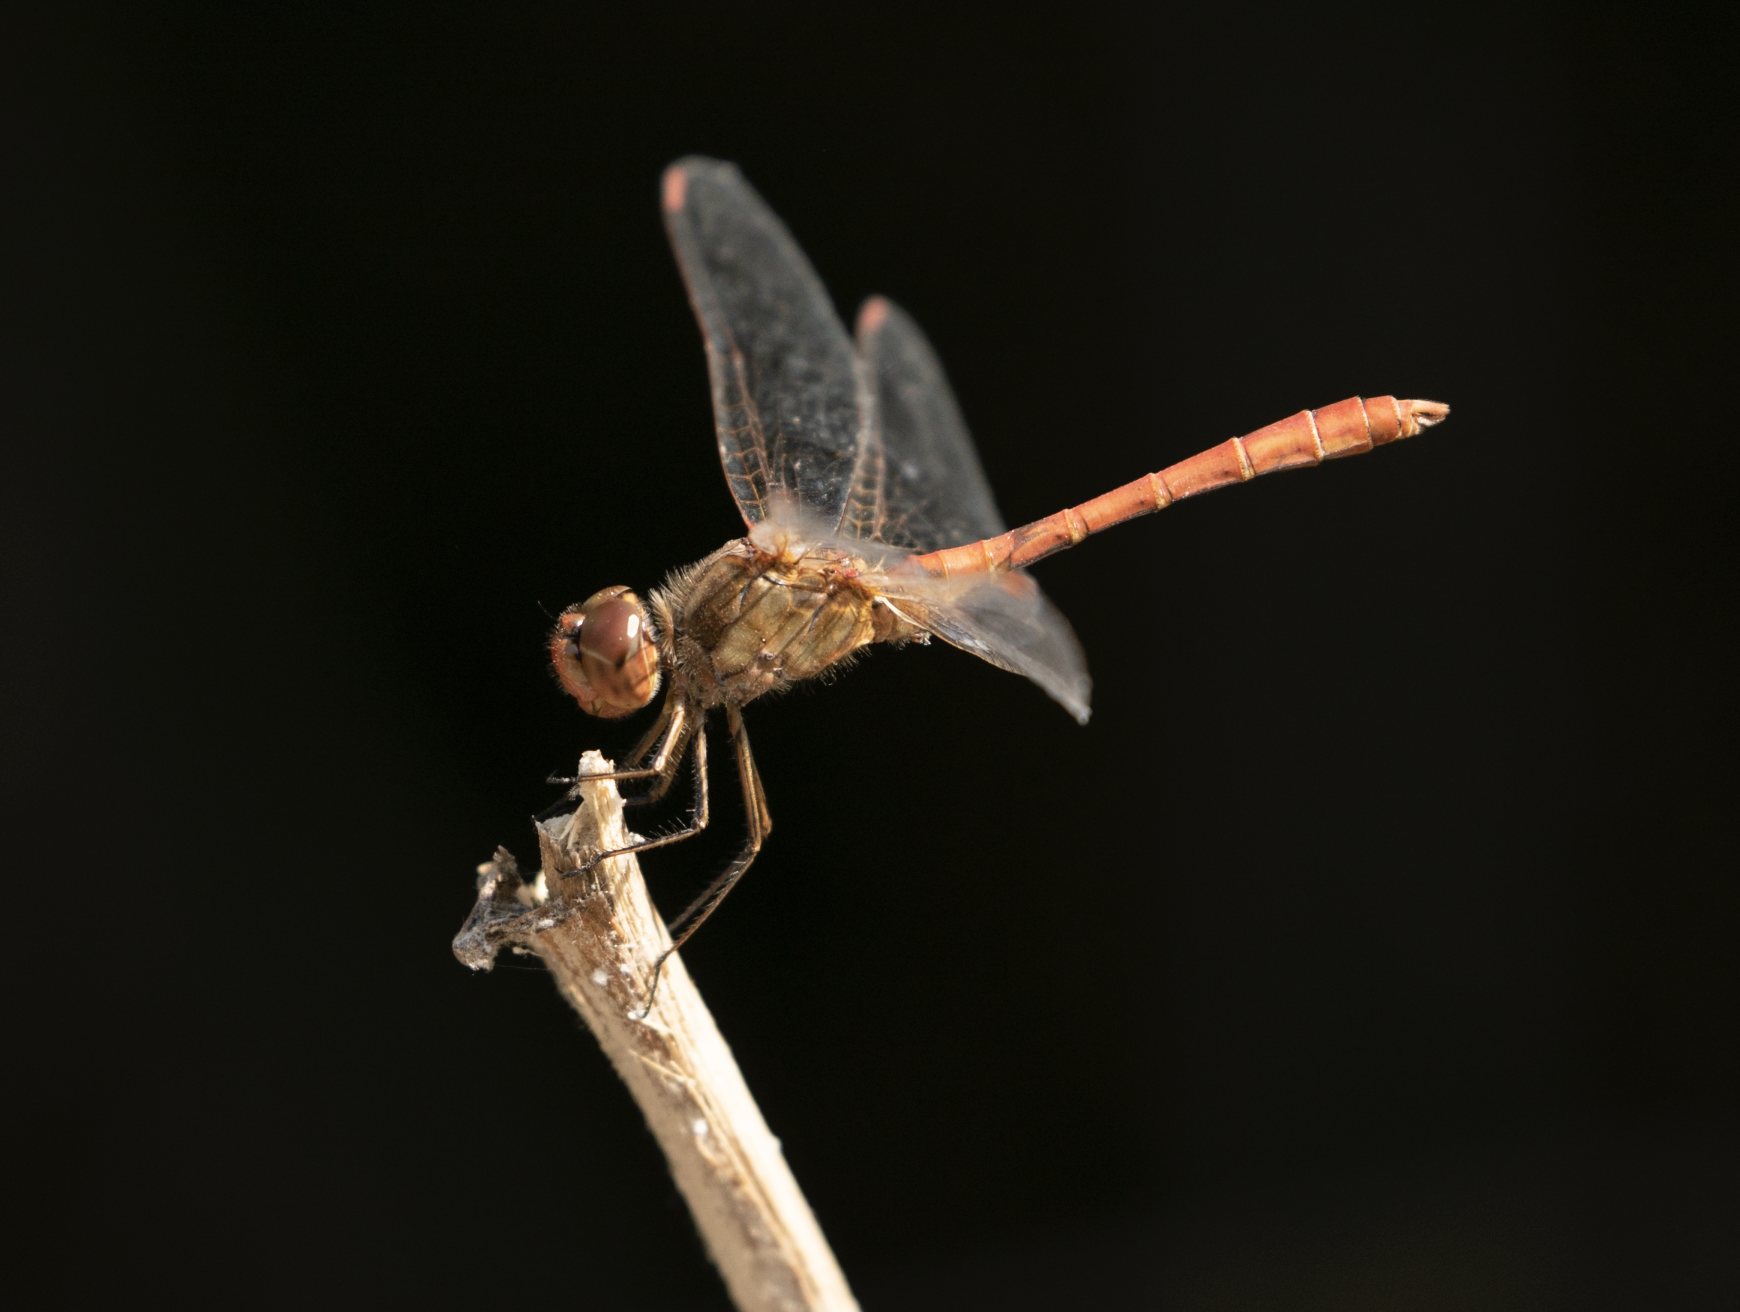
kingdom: Animalia
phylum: Arthropoda
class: Insecta
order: Odonata
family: Libellulidae
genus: Sympetrum
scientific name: Sympetrum meridionale
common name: Southern darter
